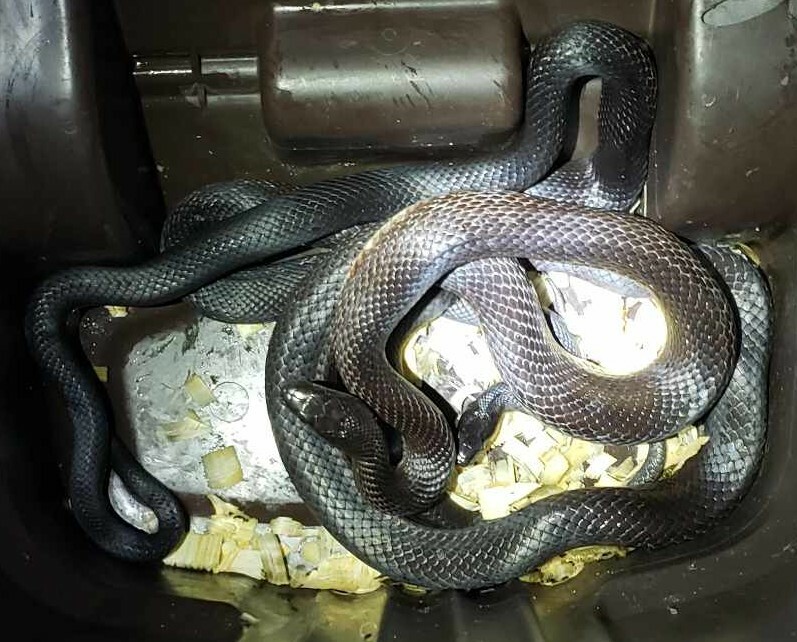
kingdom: Animalia
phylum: Chordata
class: Squamata
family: Colubridae
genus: Pantherophis
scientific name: Pantherophis alleghaniensis
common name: Eastern rat snake
